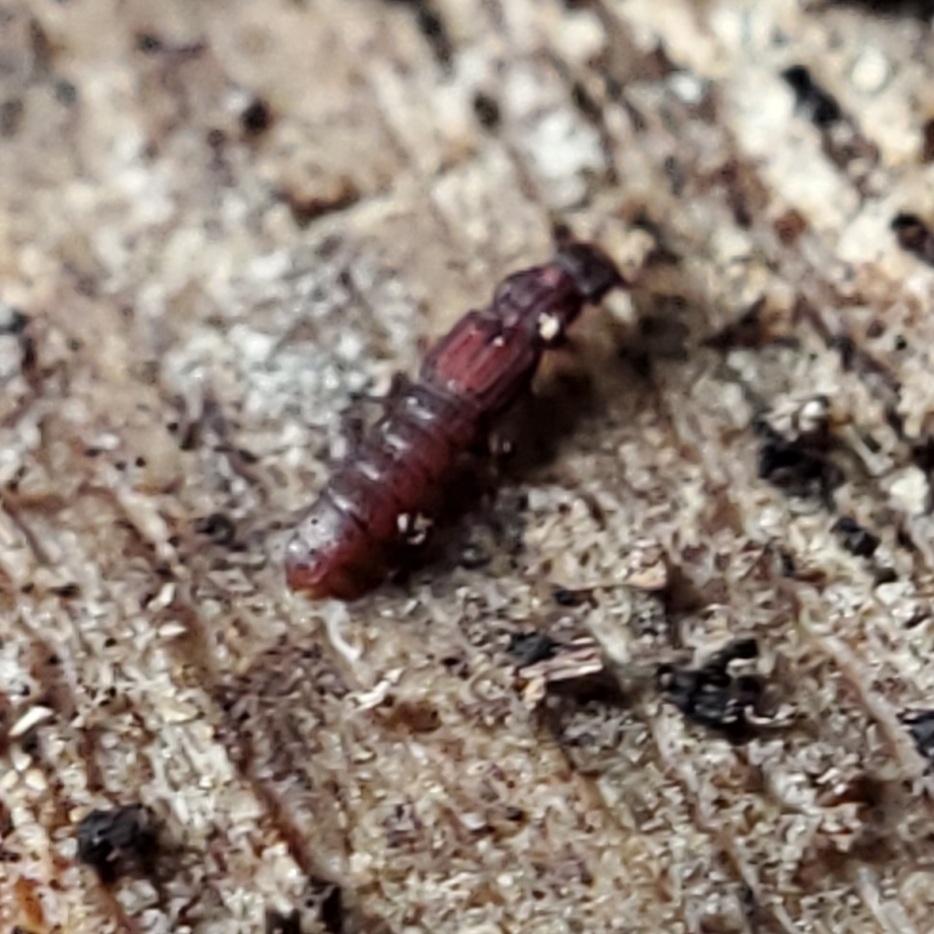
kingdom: Animalia
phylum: Arthropoda
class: Insecta
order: Coleoptera
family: Staphylinidae
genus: Thoracophorus
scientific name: Thoracophorus costalis
